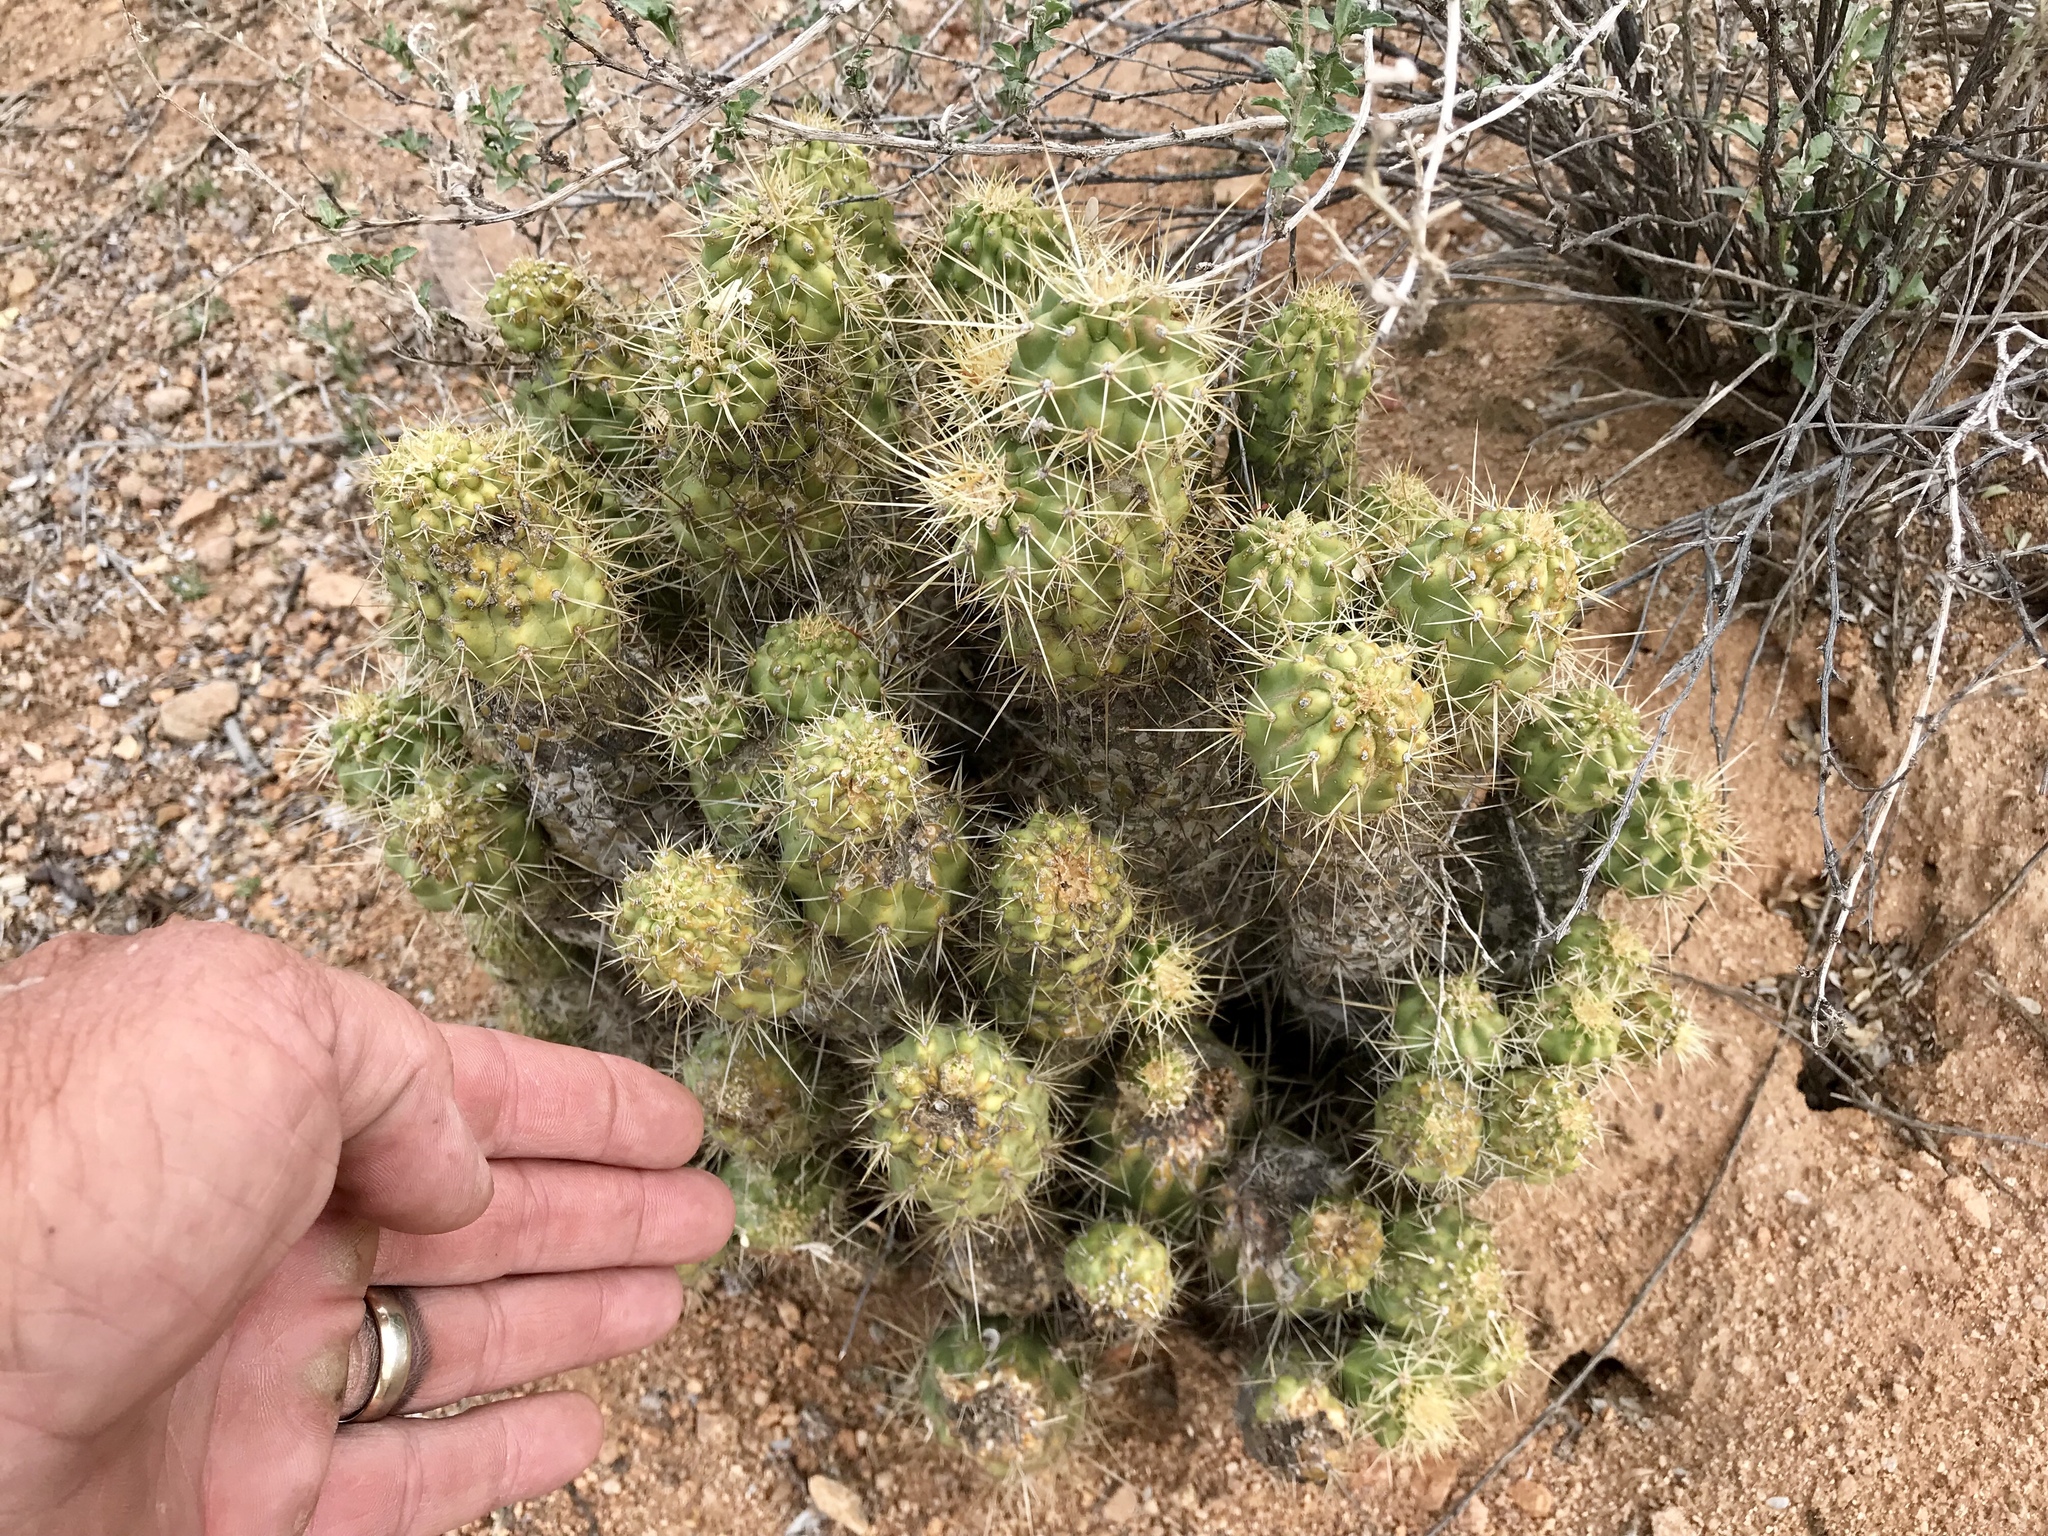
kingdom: Plantae
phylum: Tracheophyta
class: Magnoliopsida
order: Caryophyllales
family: Cactaceae
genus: Echinocereus
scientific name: Echinocereus engelmannii
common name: Engelmann's hedgehog cactus
